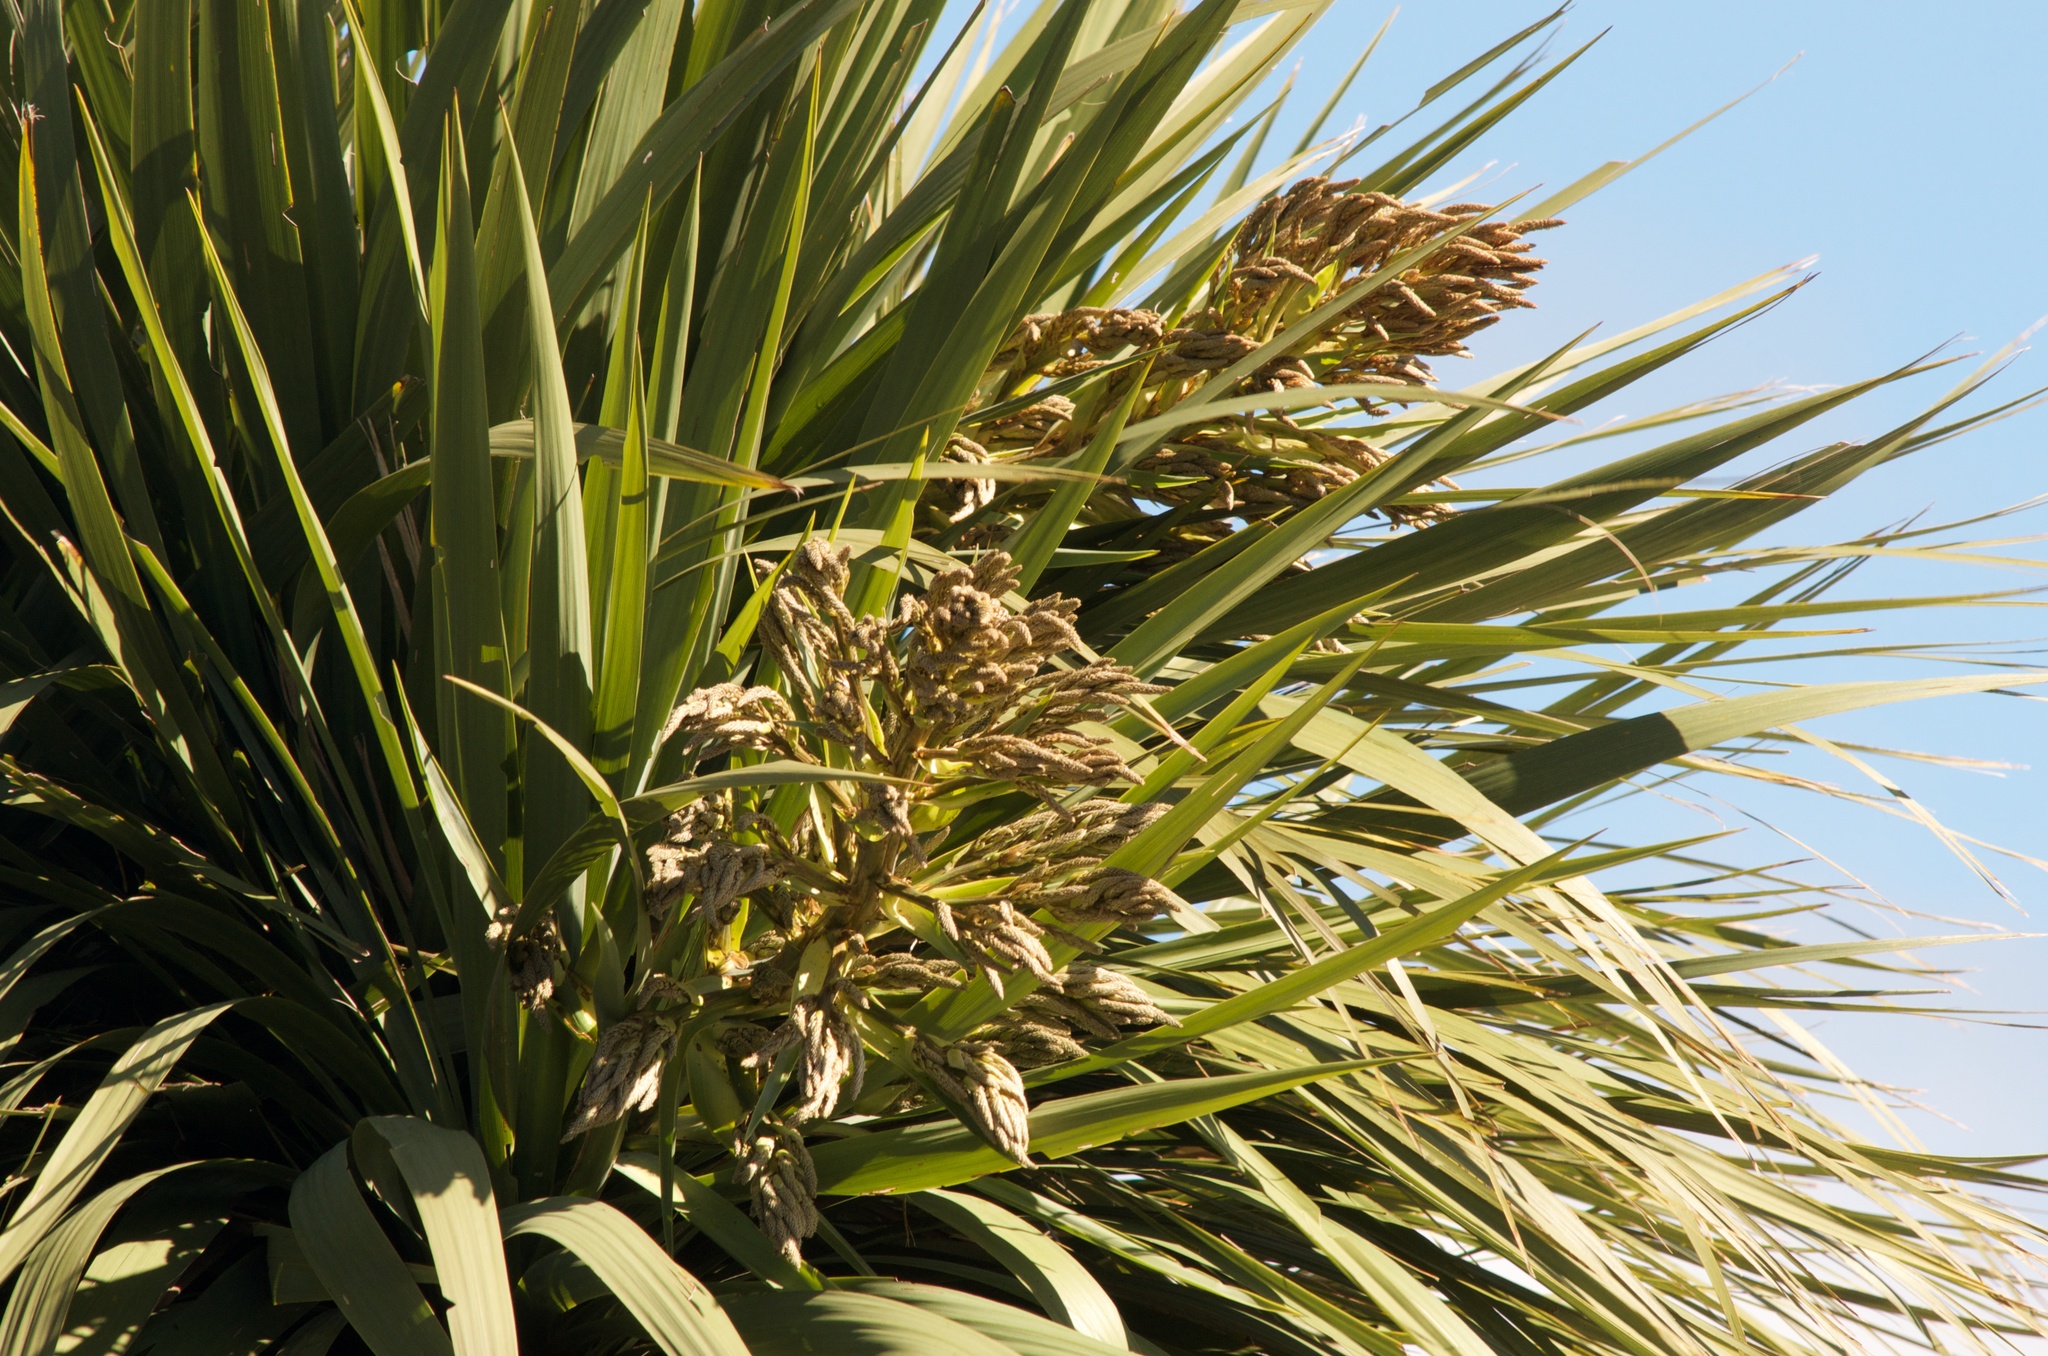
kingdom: Plantae
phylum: Tracheophyta
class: Liliopsida
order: Asparagales
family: Asparagaceae
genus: Cordyline
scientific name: Cordyline australis
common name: Cabbage-palm
